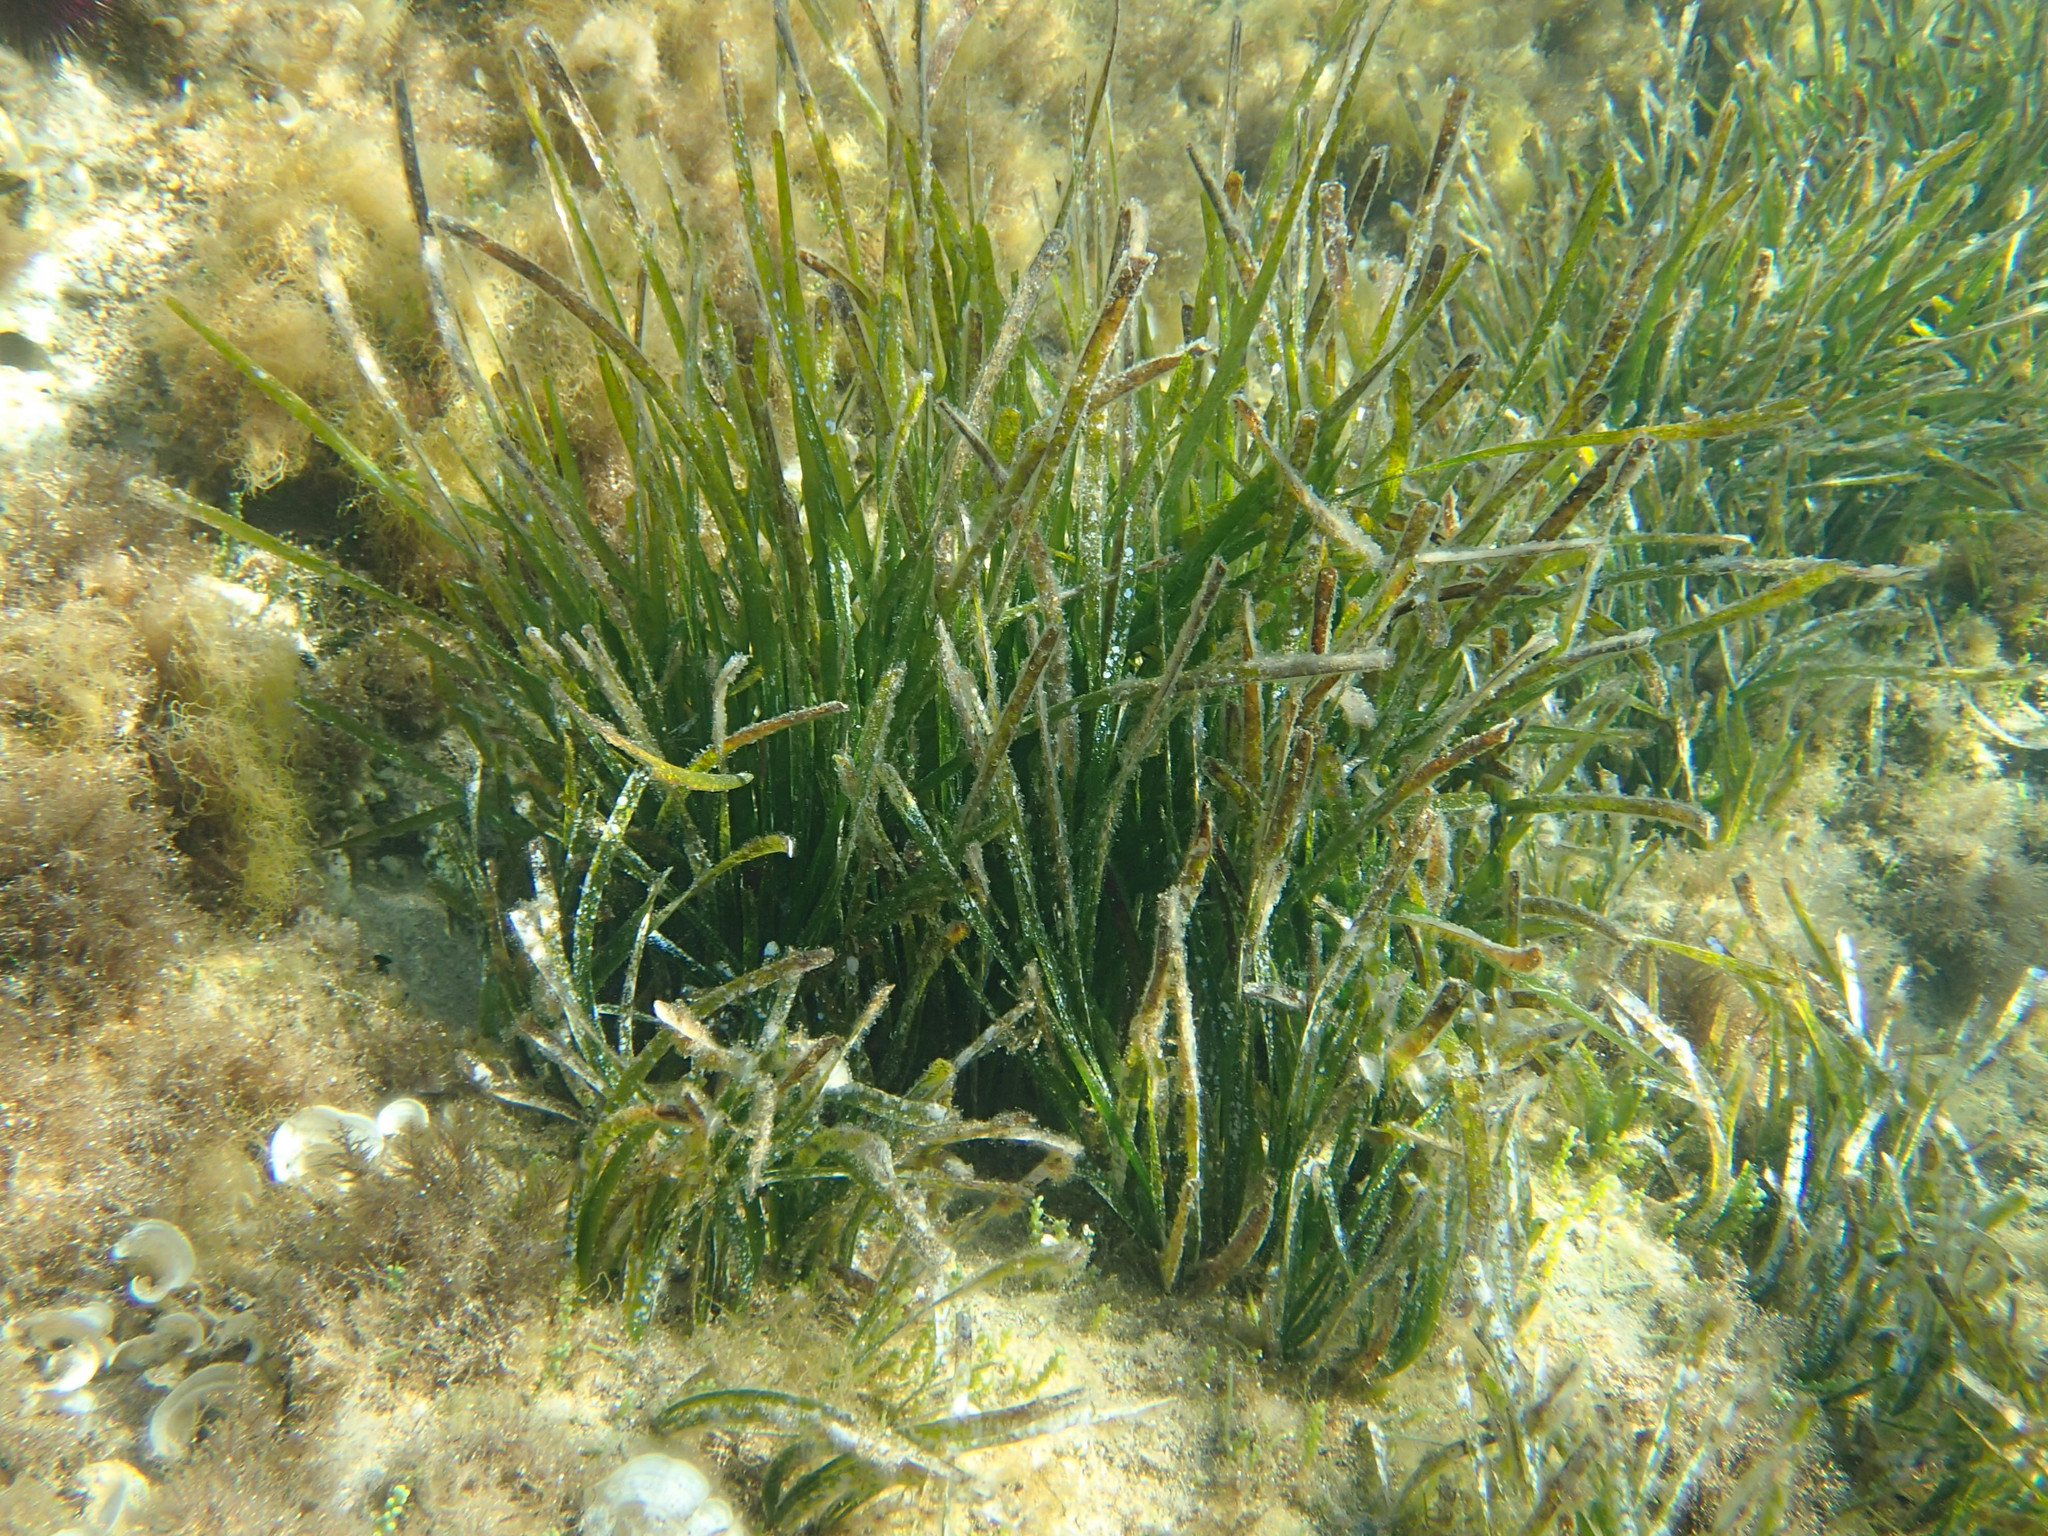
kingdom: Plantae
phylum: Tracheophyta
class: Liliopsida
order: Alismatales
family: Posidoniaceae
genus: Posidonia
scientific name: Posidonia oceanica
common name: Mediterranean tapeweed
